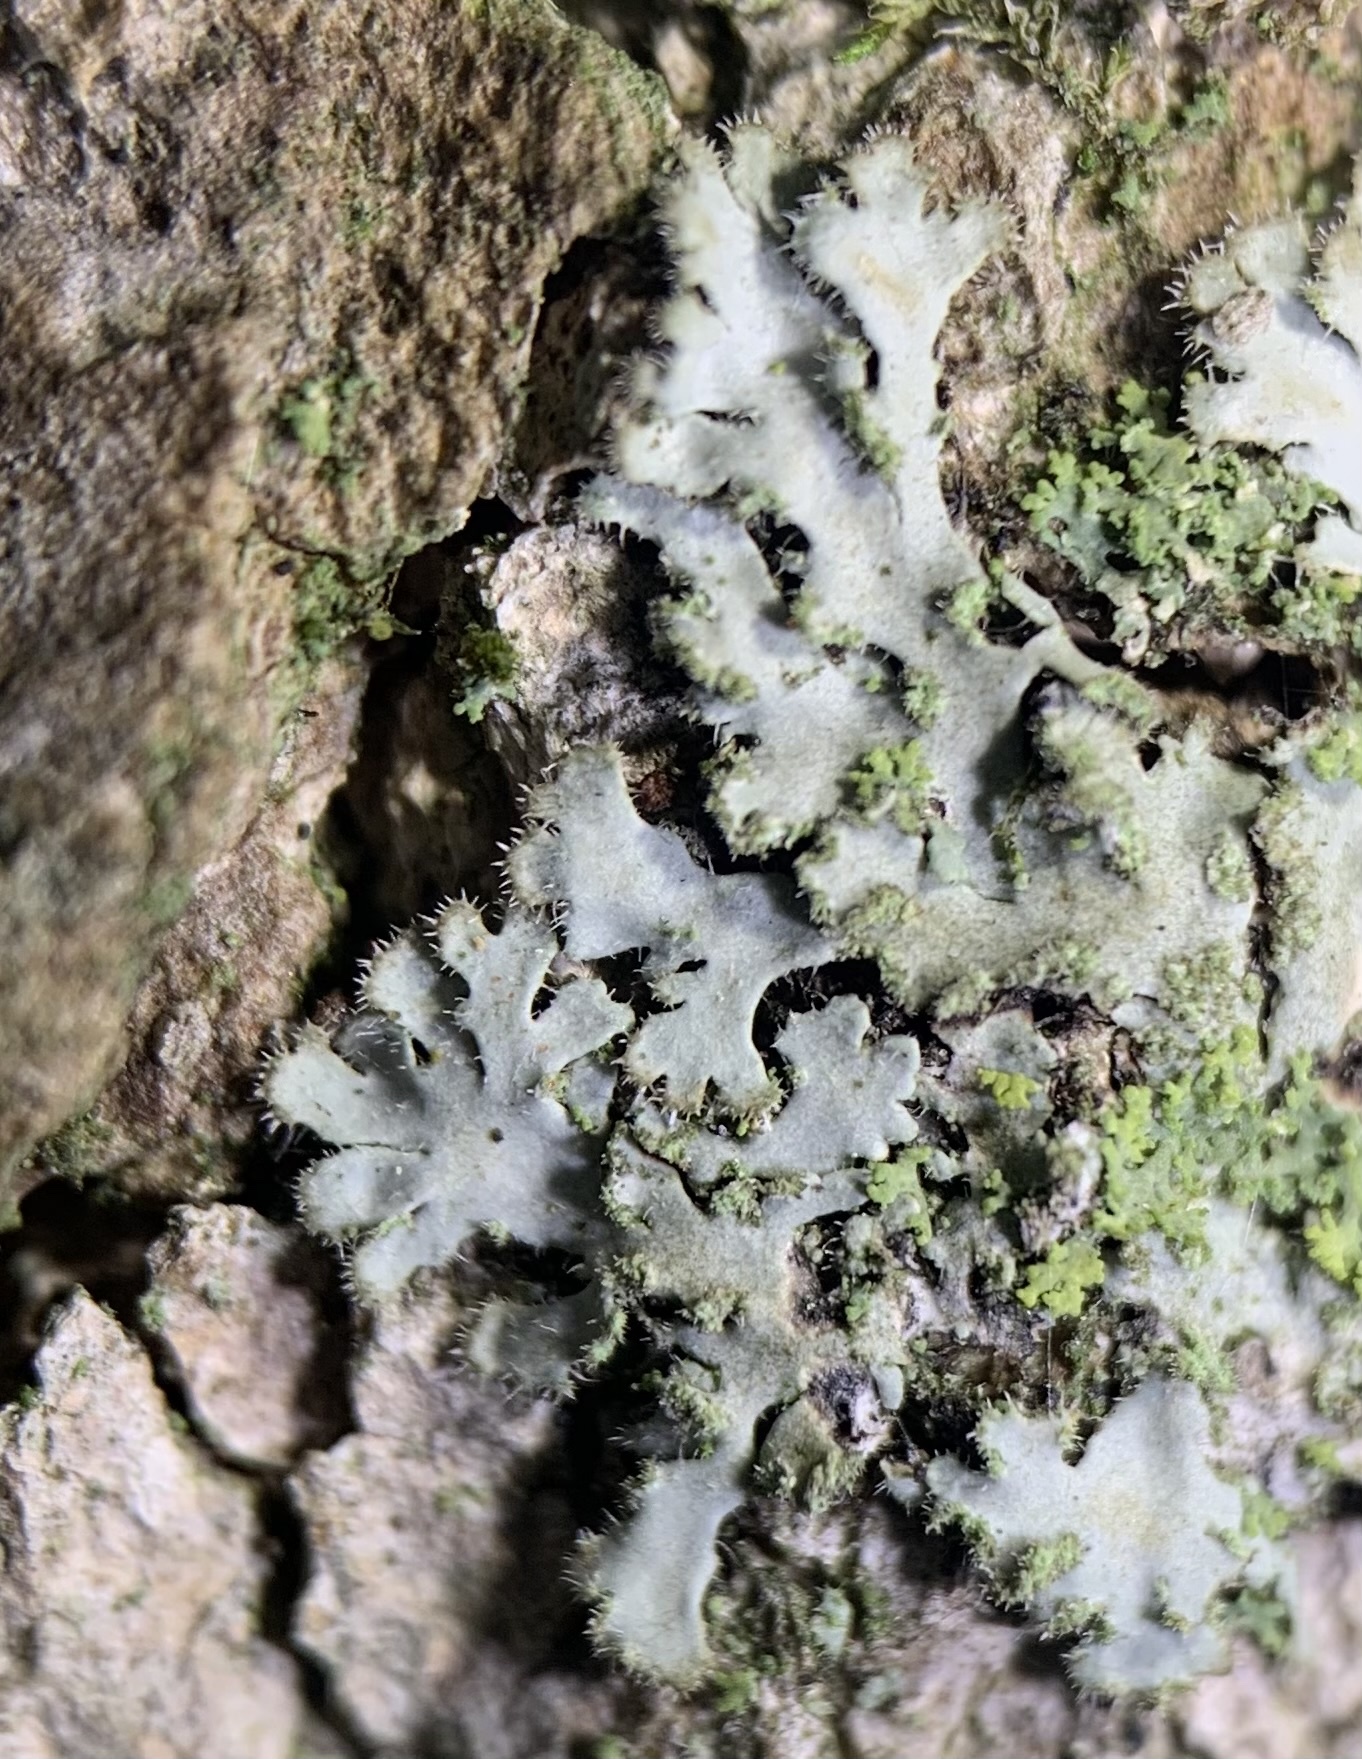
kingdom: Fungi
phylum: Ascomycota
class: Lecanoromycetes
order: Caliciales
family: Physciaceae
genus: Phaeophyscia
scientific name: Phaeophyscia hirsuta
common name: Hairy shadow lichen
